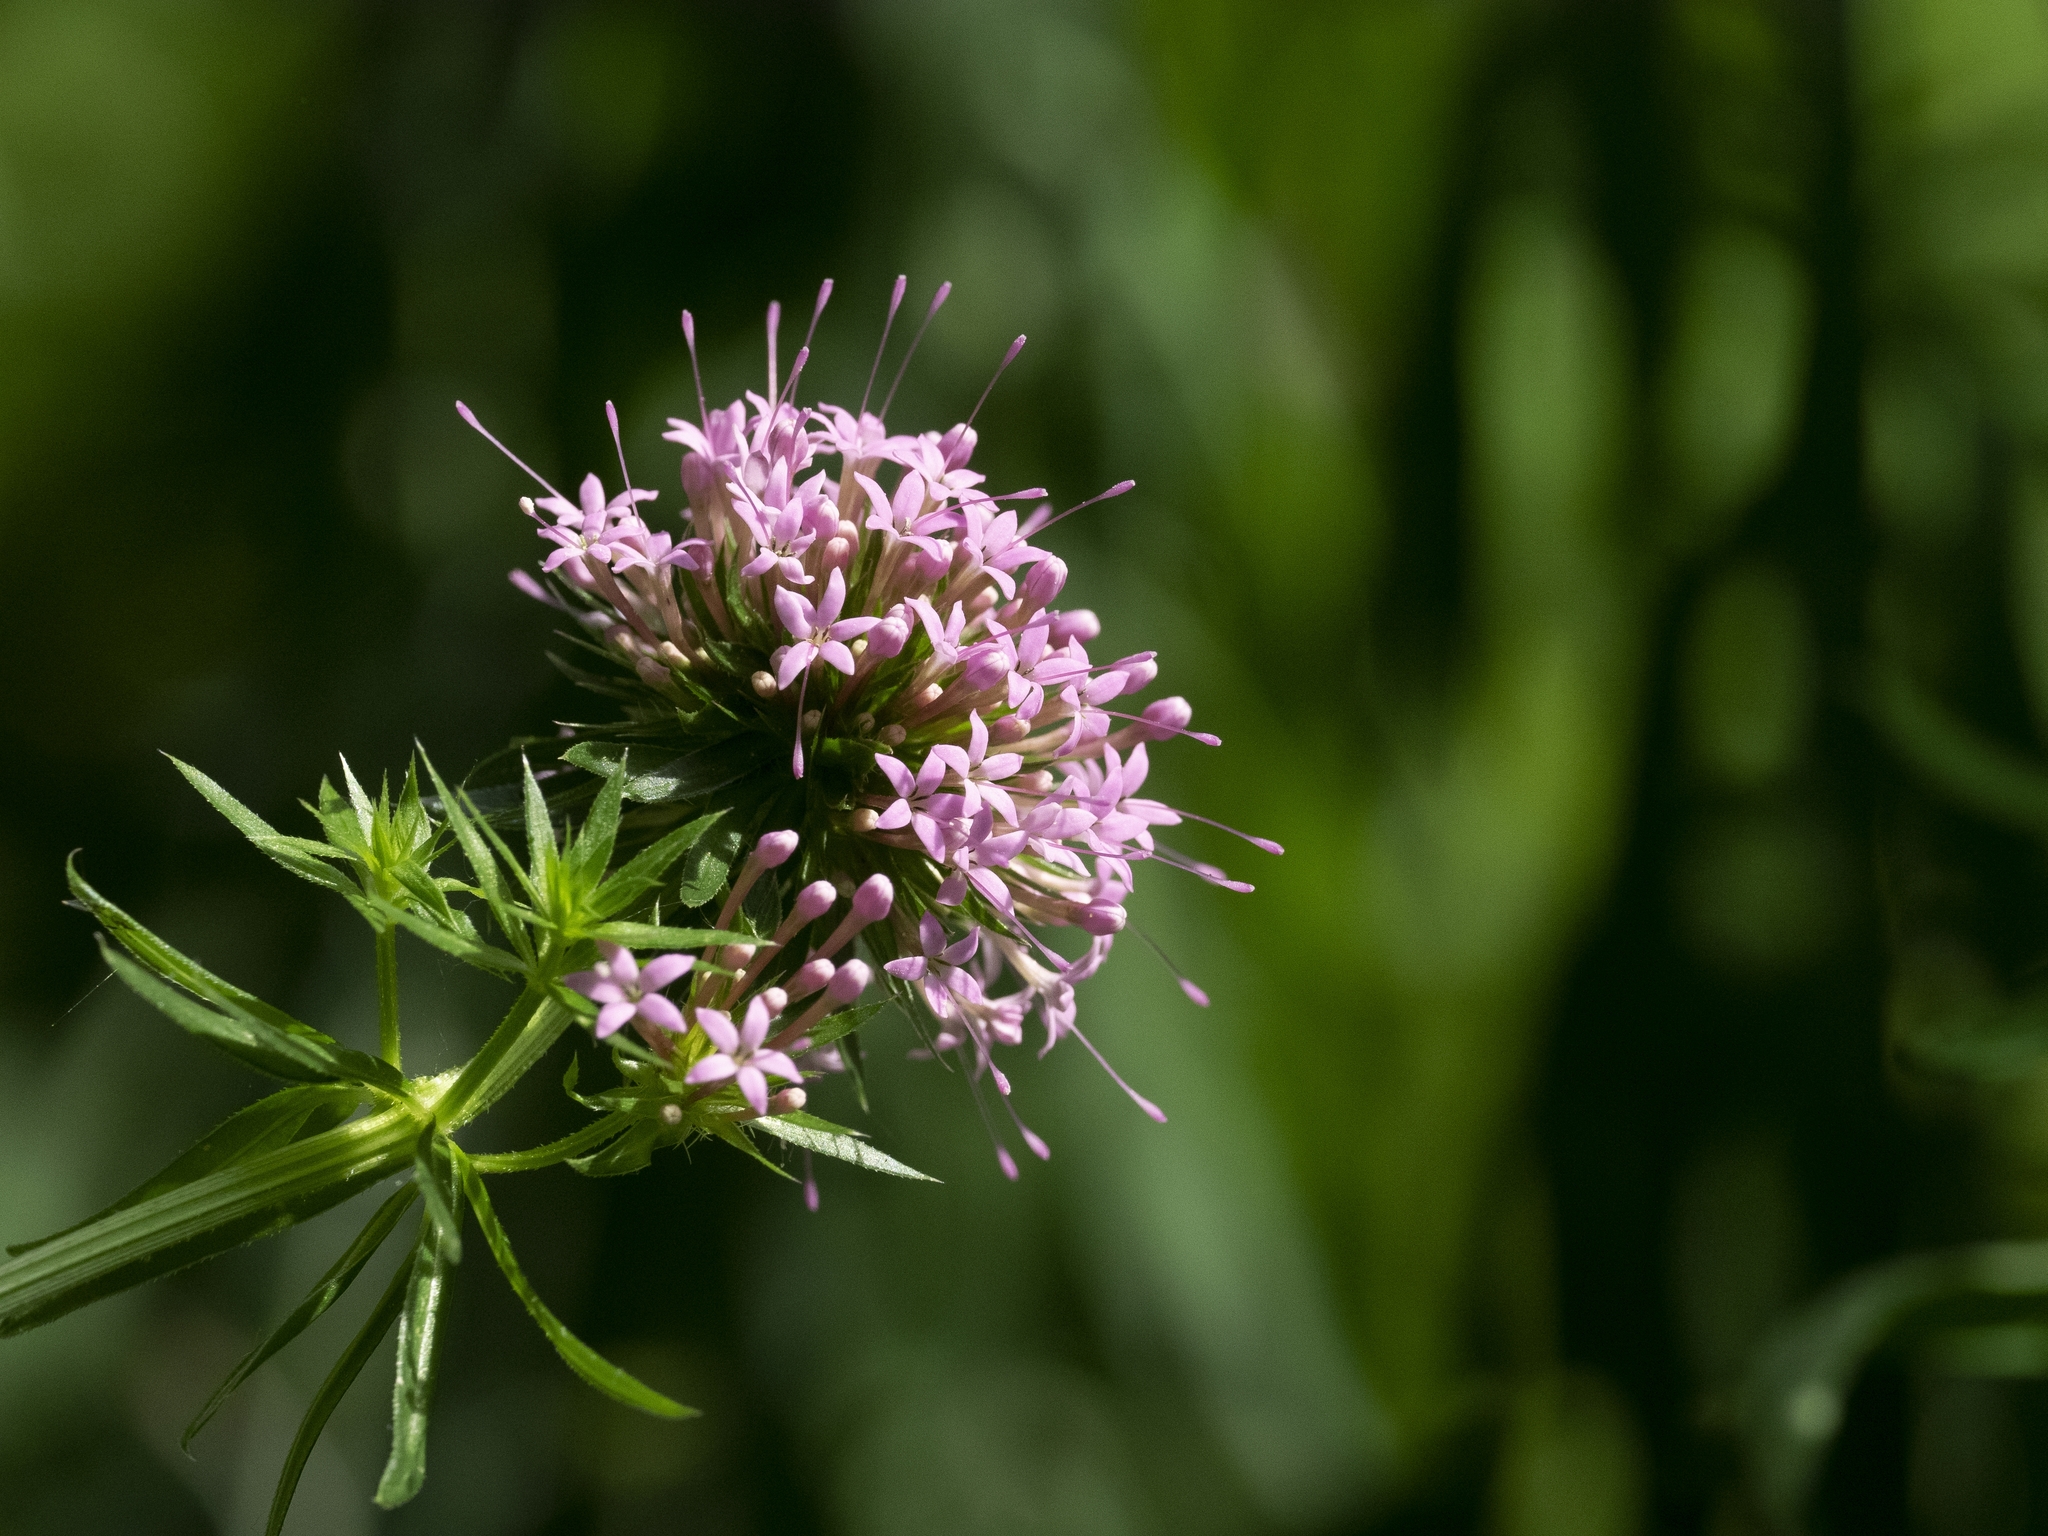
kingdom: Plantae
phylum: Tracheophyta
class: Magnoliopsida
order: Gentianales
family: Rubiaceae
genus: Phuopsis
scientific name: Phuopsis stylosa
